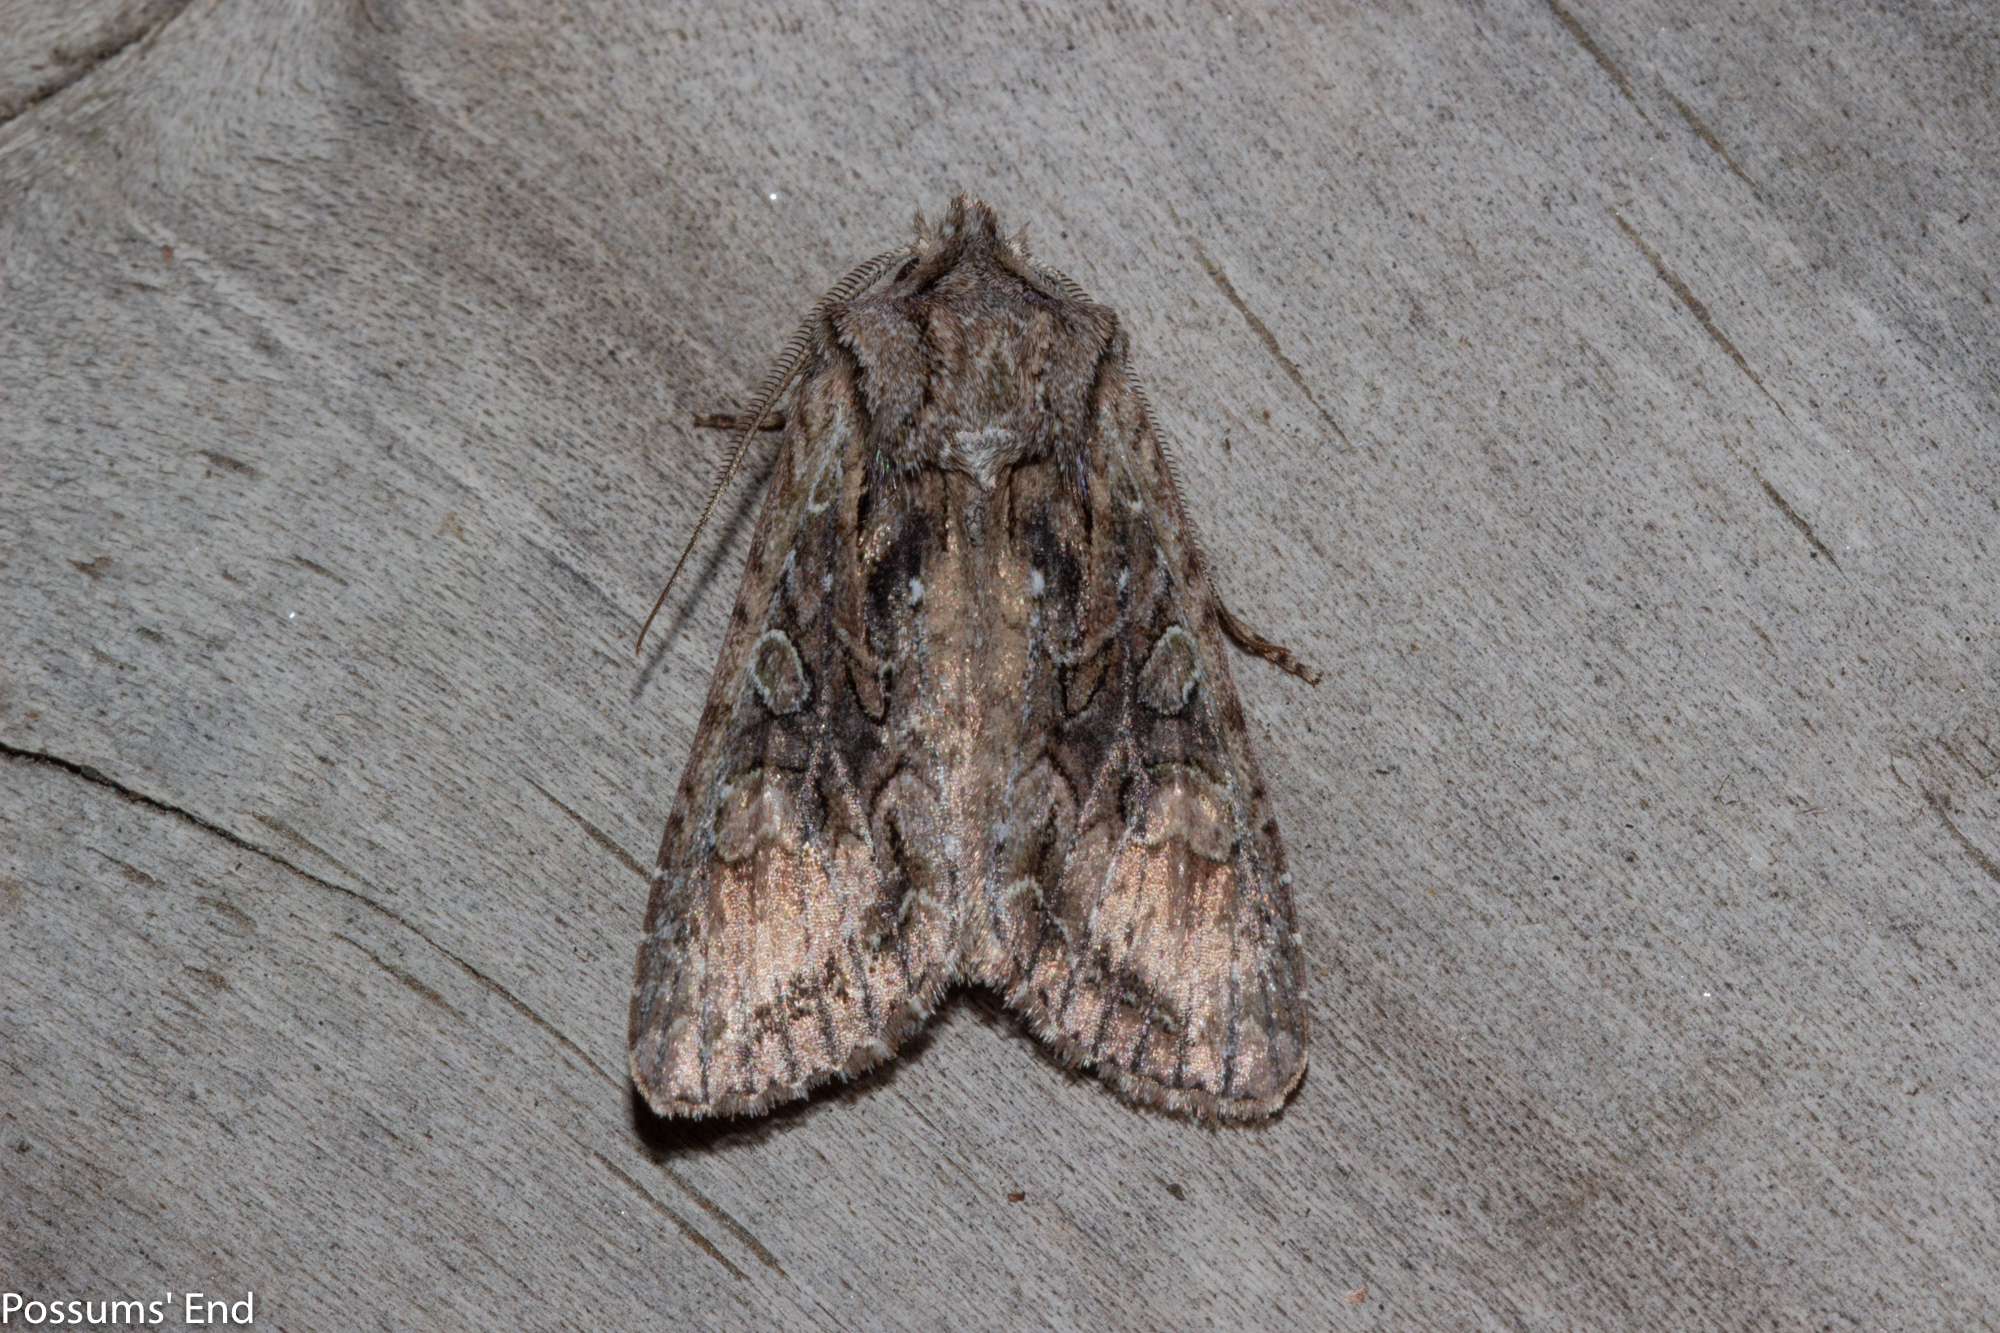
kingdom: Animalia
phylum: Arthropoda
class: Insecta
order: Lepidoptera
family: Noctuidae
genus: Ichneutica
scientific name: Ichneutica mutans
